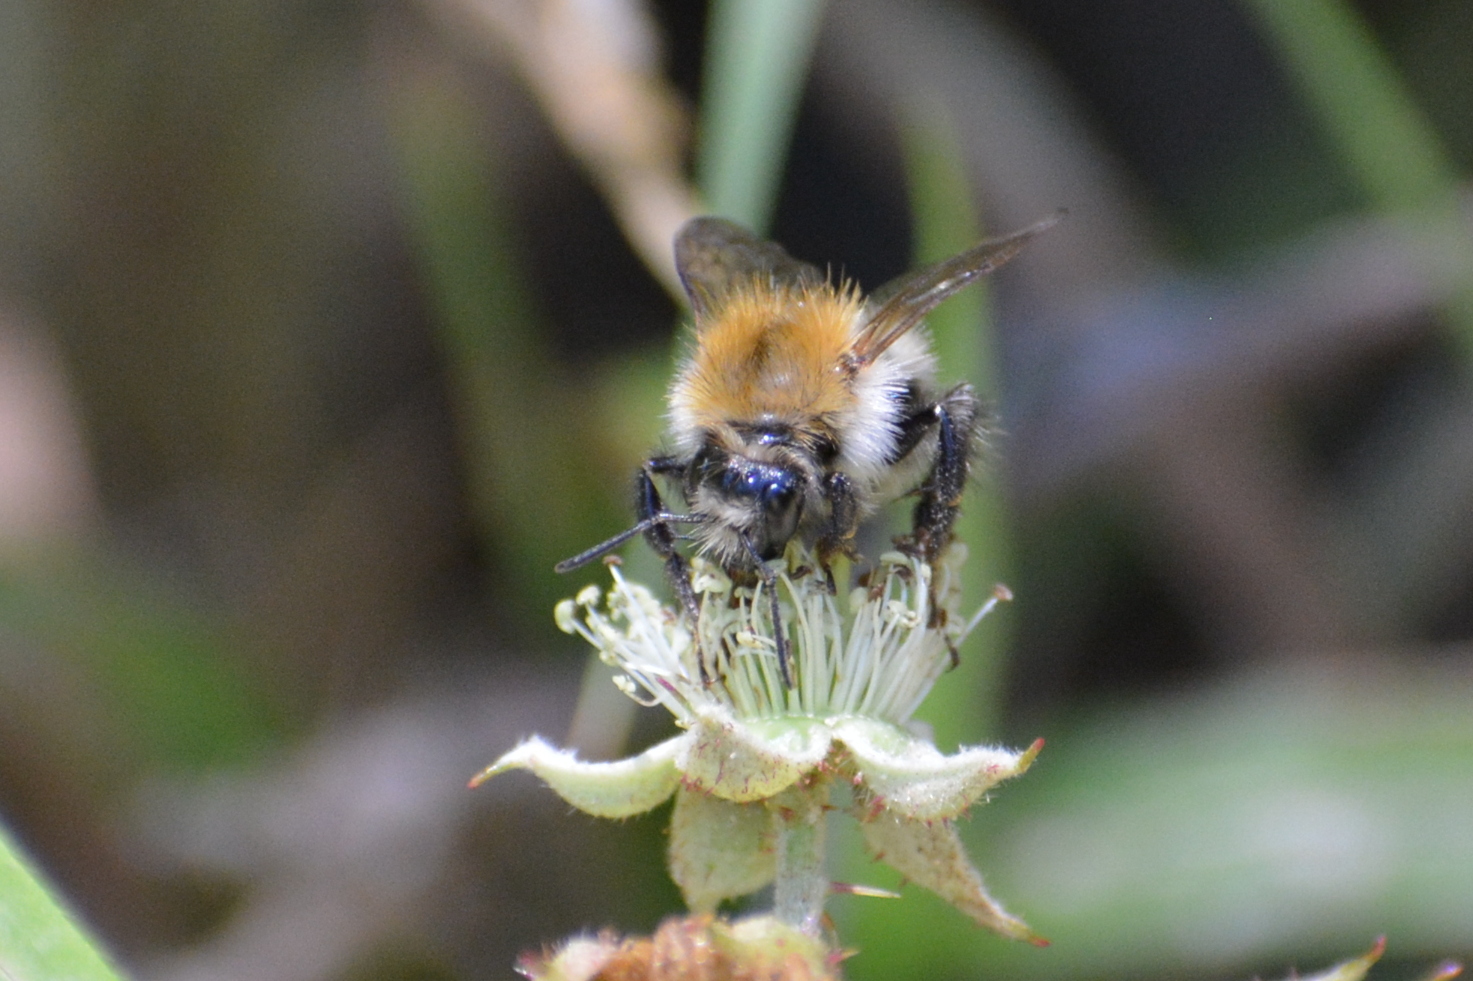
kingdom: Animalia
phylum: Arthropoda
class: Insecta
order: Hymenoptera
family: Apidae
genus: Bombus
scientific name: Bombus pascuorum
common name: Common carder bee
